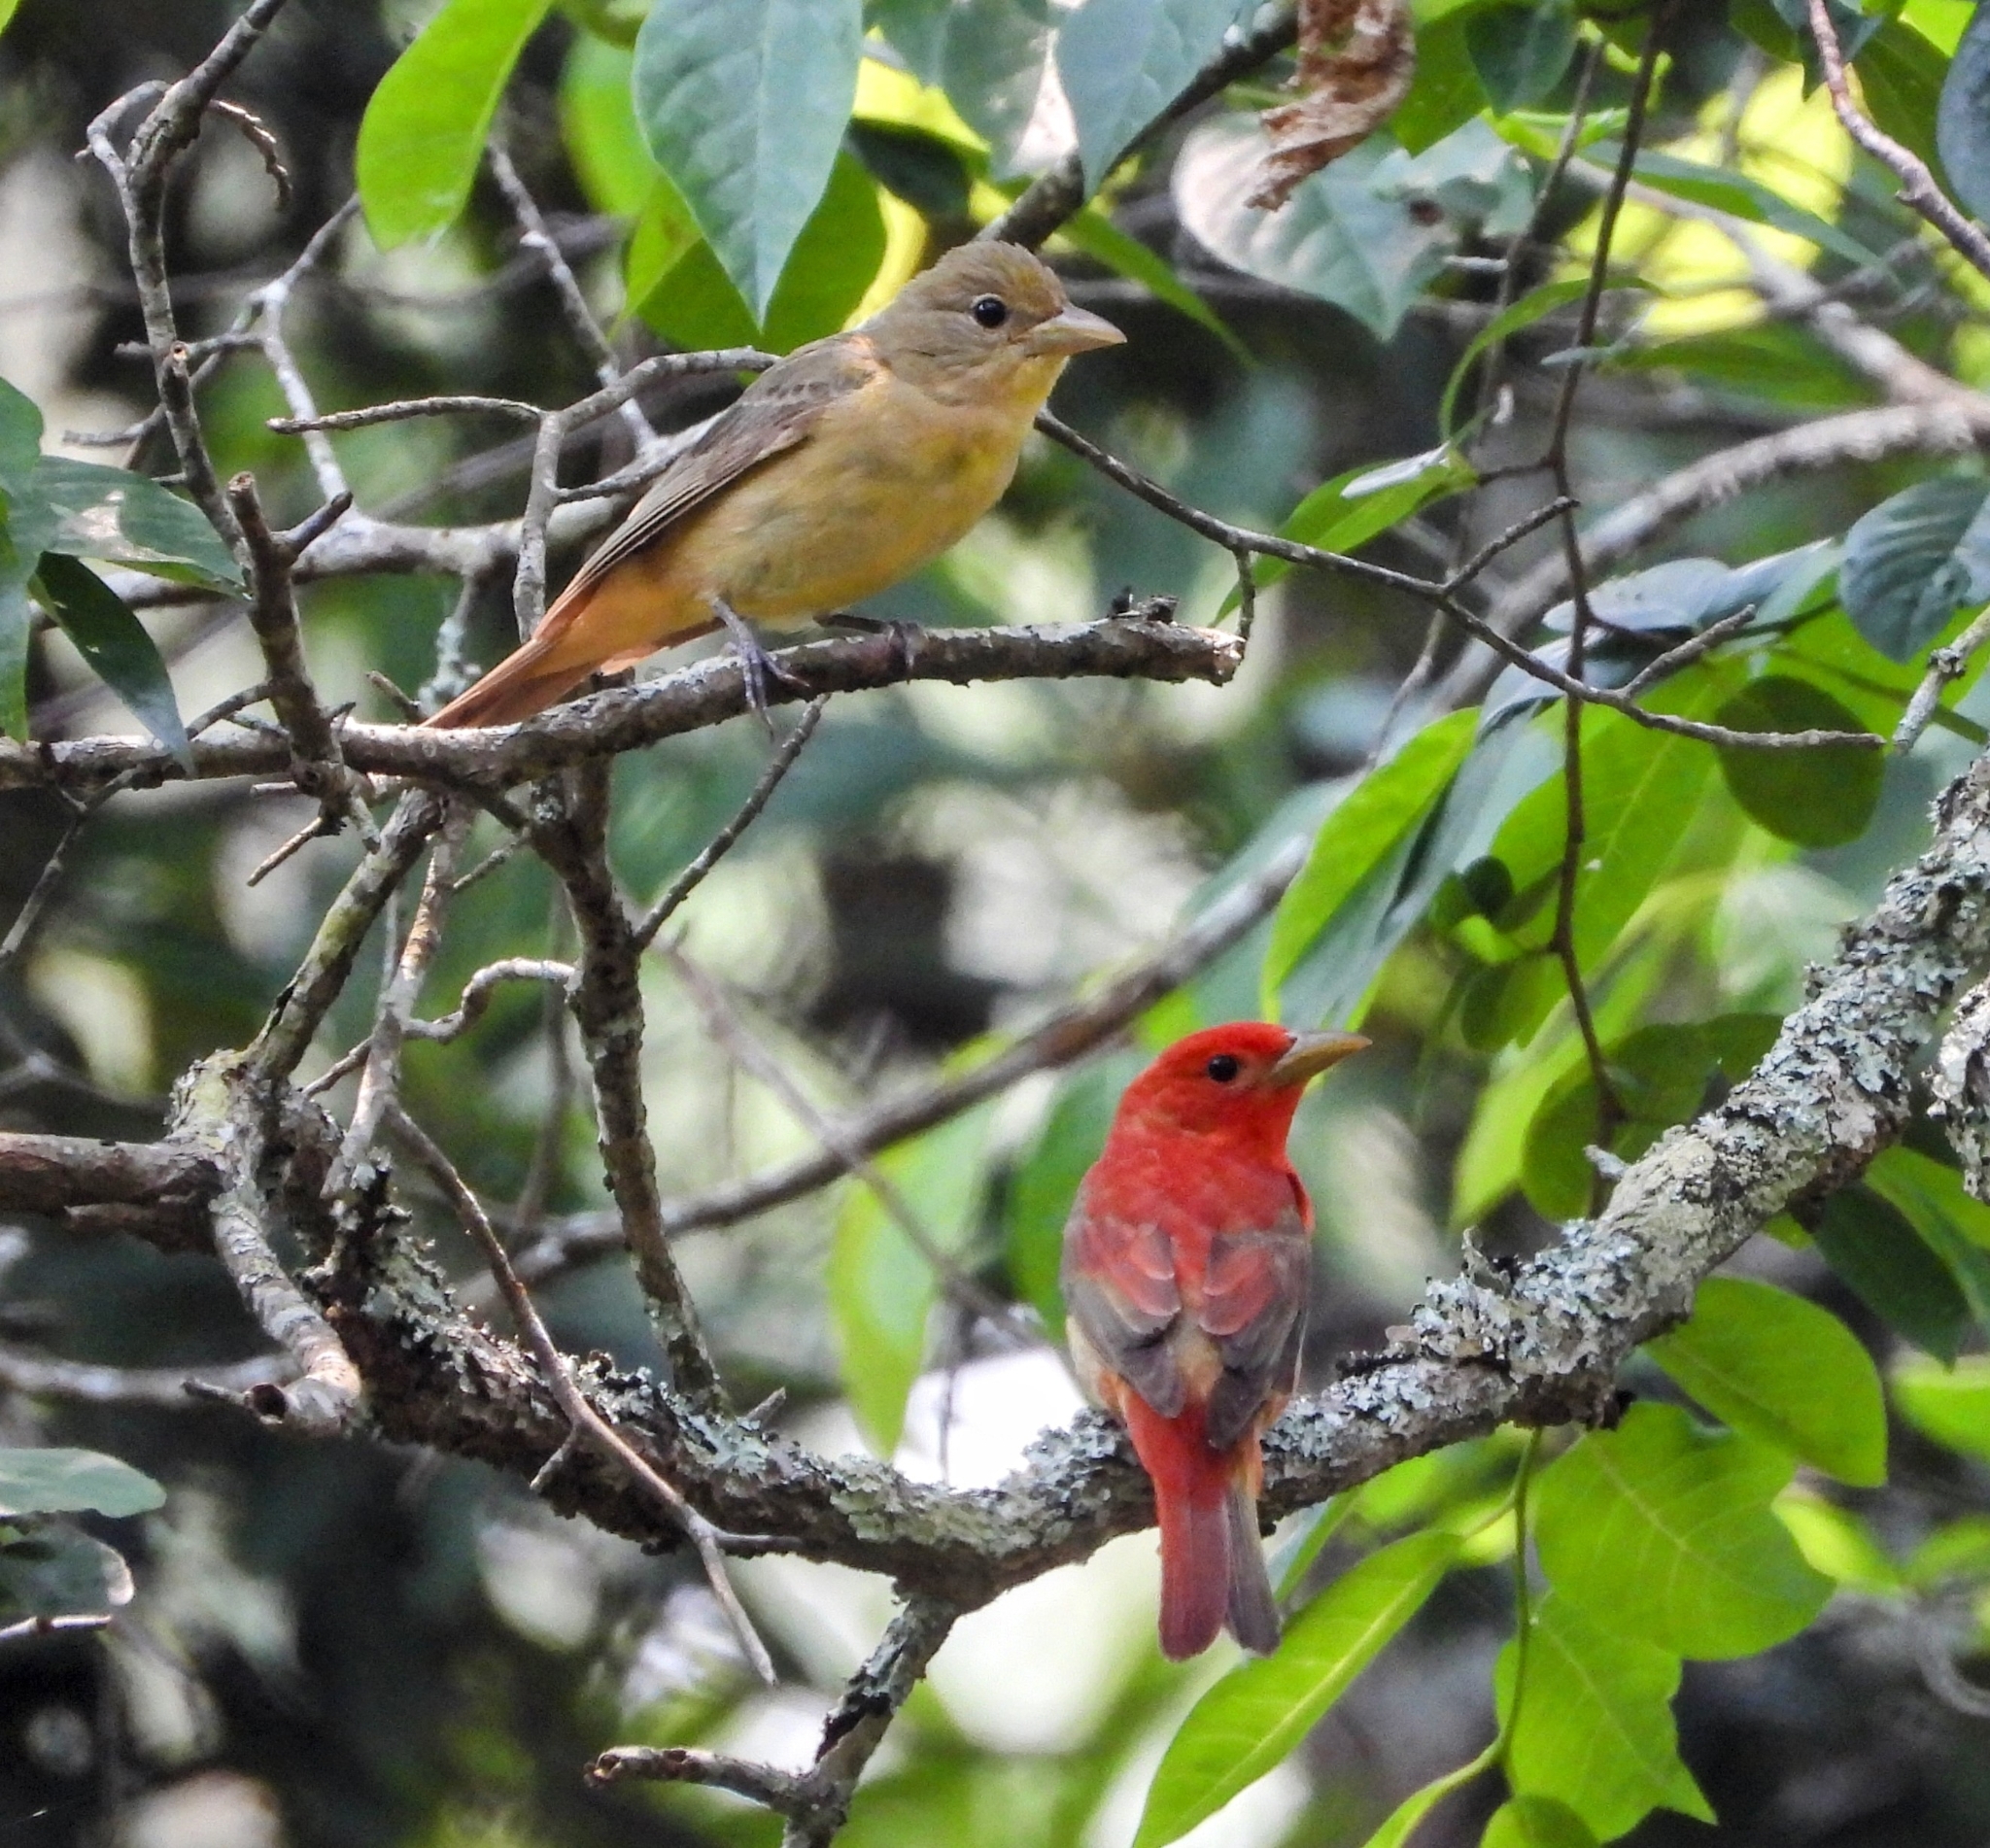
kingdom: Animalia
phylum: Chordata
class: Aves
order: Passeriformes
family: Cardinalidae
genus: Piranga
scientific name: Piranga rubra
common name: Summer tanager
